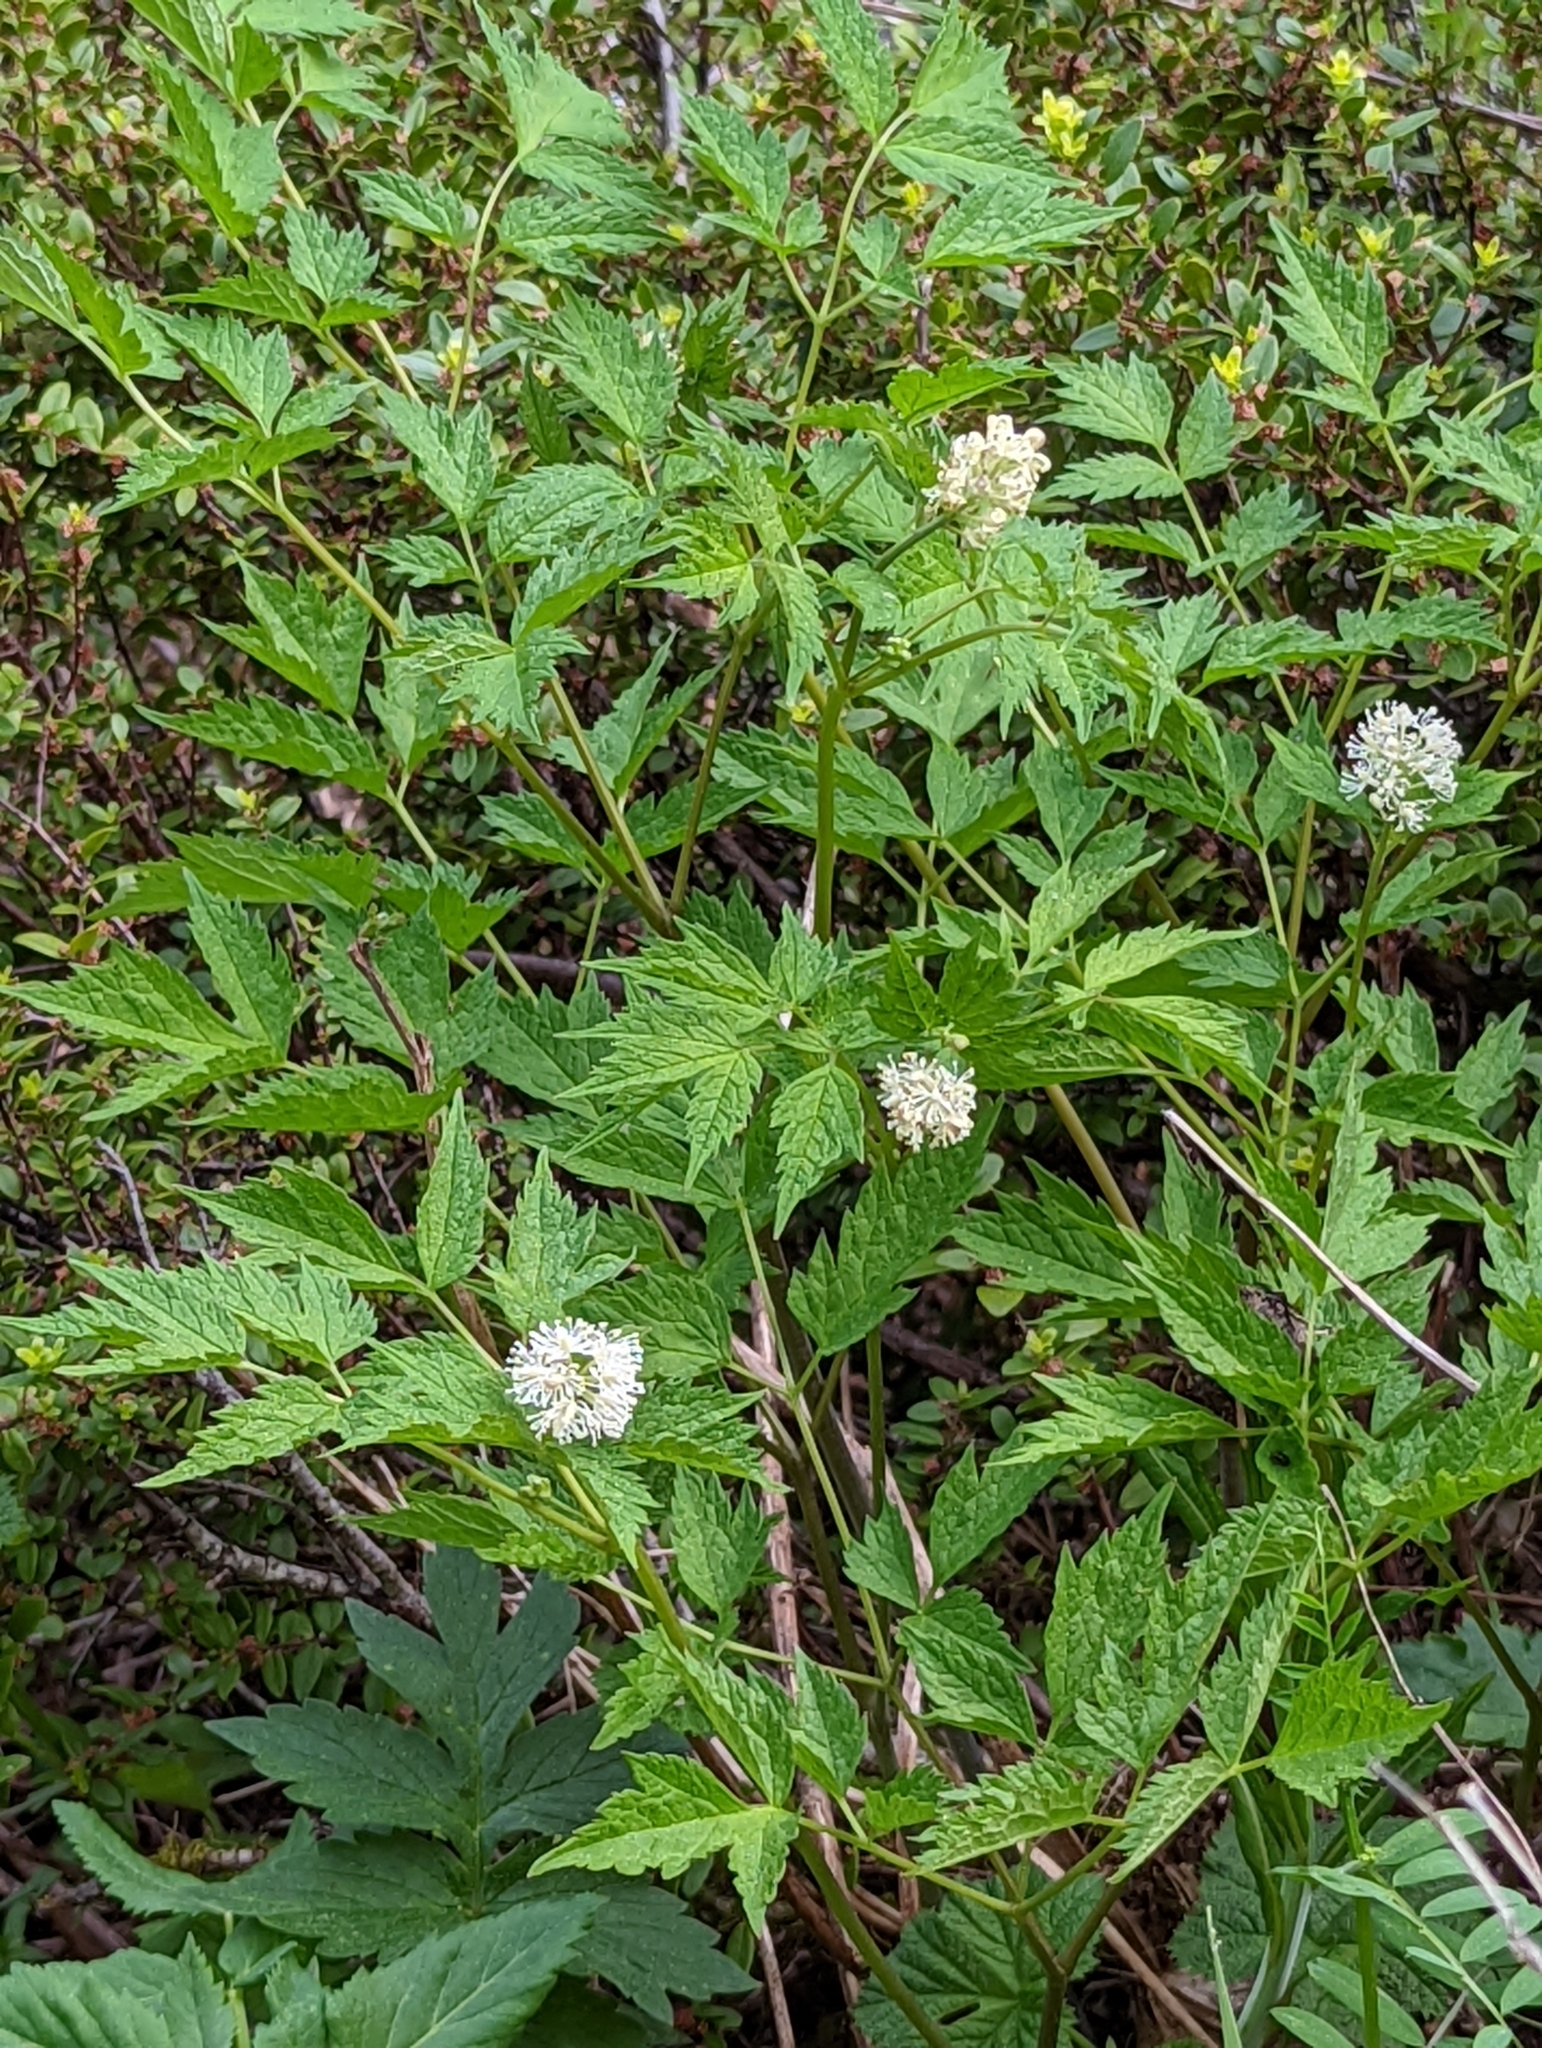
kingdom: Plantae
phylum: Tracheophyta
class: Magnoliopsida
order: Ranunculales
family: Ranunculaceae
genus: Actaea
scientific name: Actaea rubra
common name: Red baneberry
